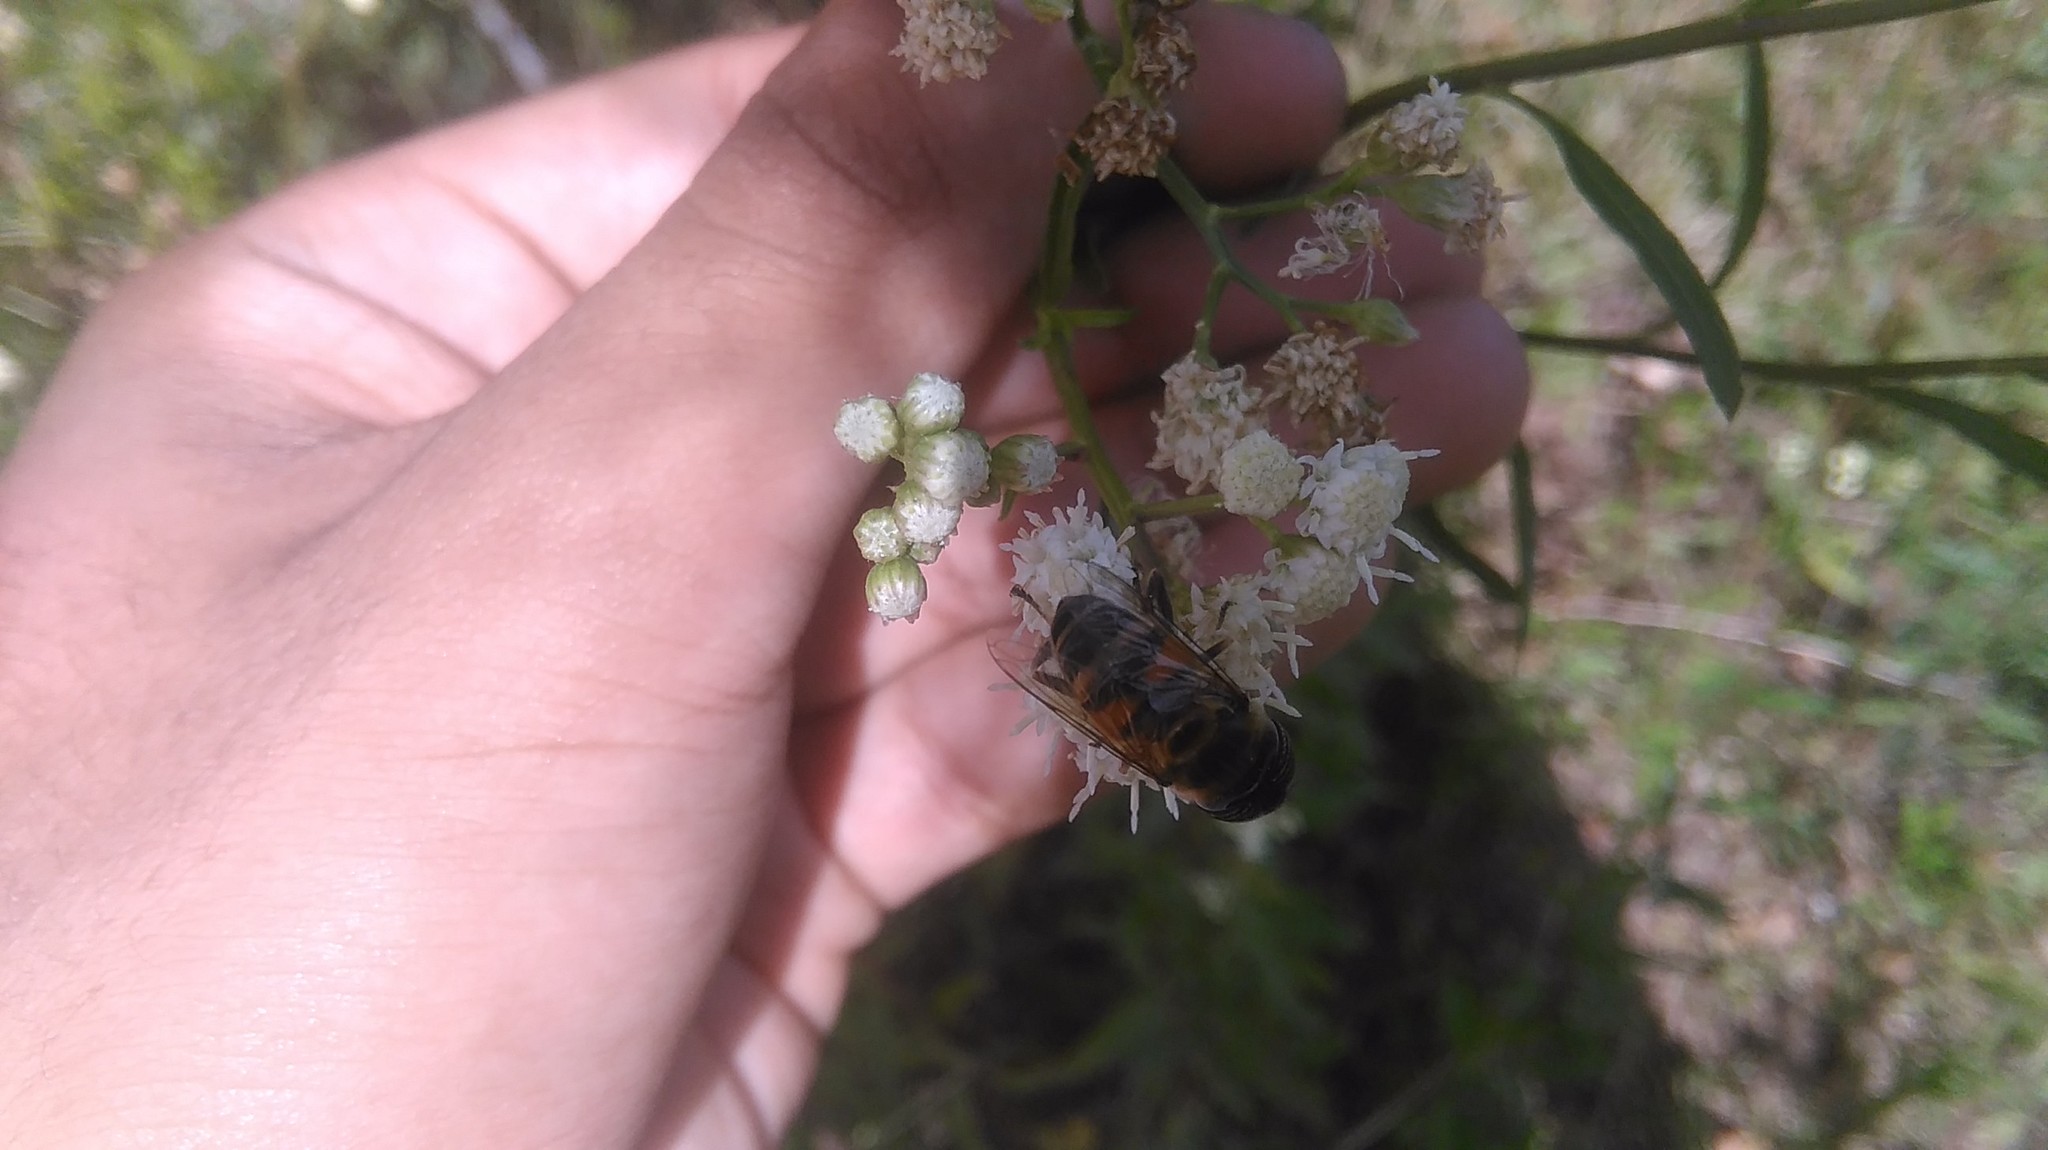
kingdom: Animalia
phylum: Arthropoda
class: Insecta
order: Diptera
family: Syrphidae
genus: Eristalinus
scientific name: Eristalinus taeniops
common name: Syrphid fly
